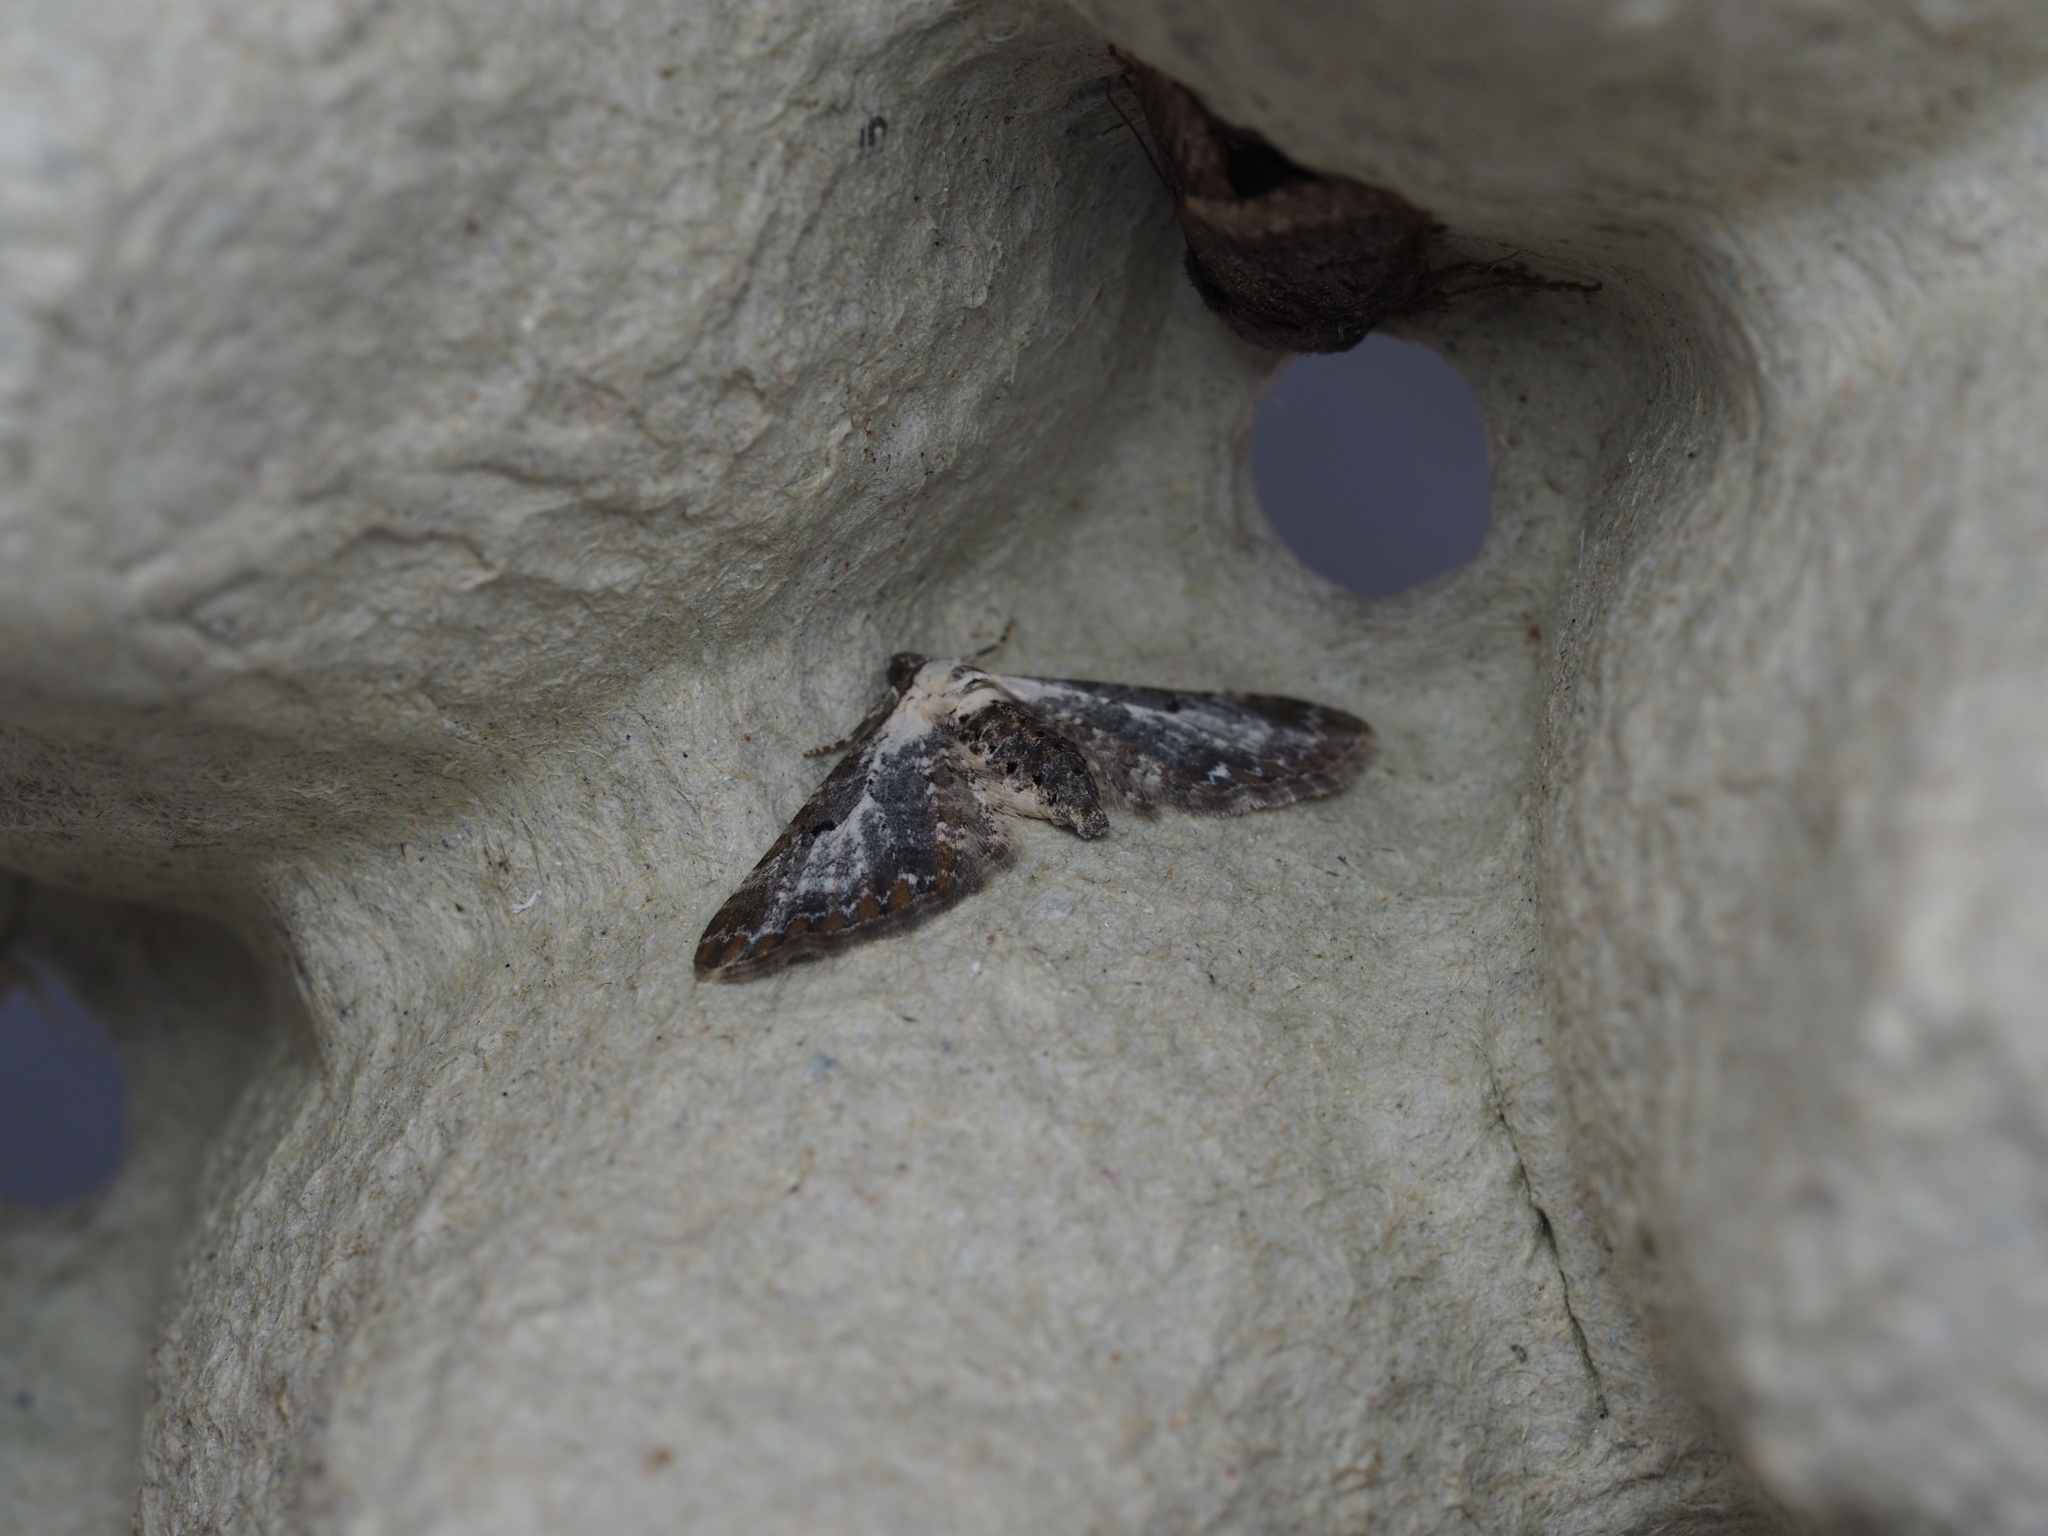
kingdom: Animalia
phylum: Arthropoda
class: Insecta
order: Lepidoptera
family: Geometridae
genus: Eupithecia
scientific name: Eupithecia succenturiata
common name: Bordered pug
